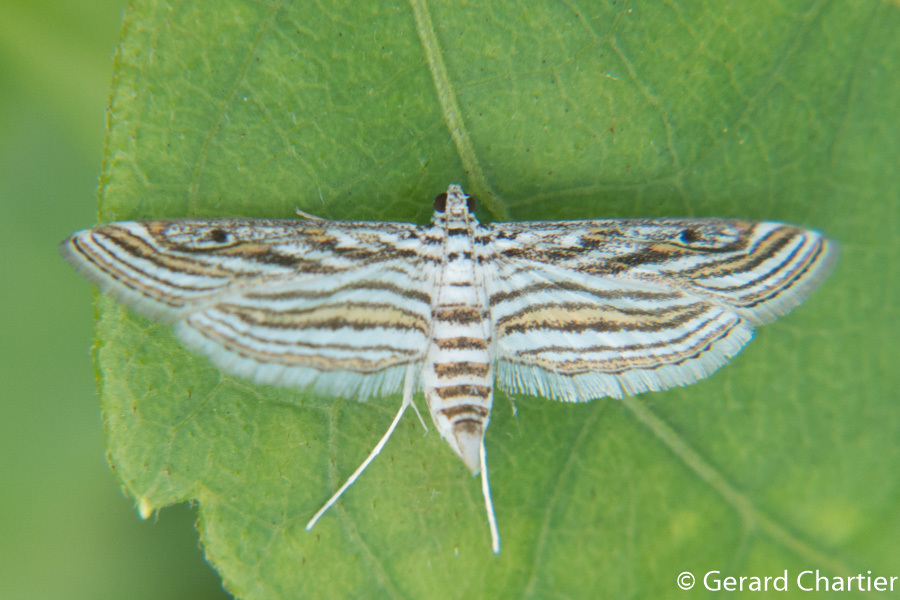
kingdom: Animalia
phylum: Arthropoda
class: Insecta
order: Lepidoptera
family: Crambidae
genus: Parapoynx
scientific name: Parapoynx fluctuosalis
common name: Moth
